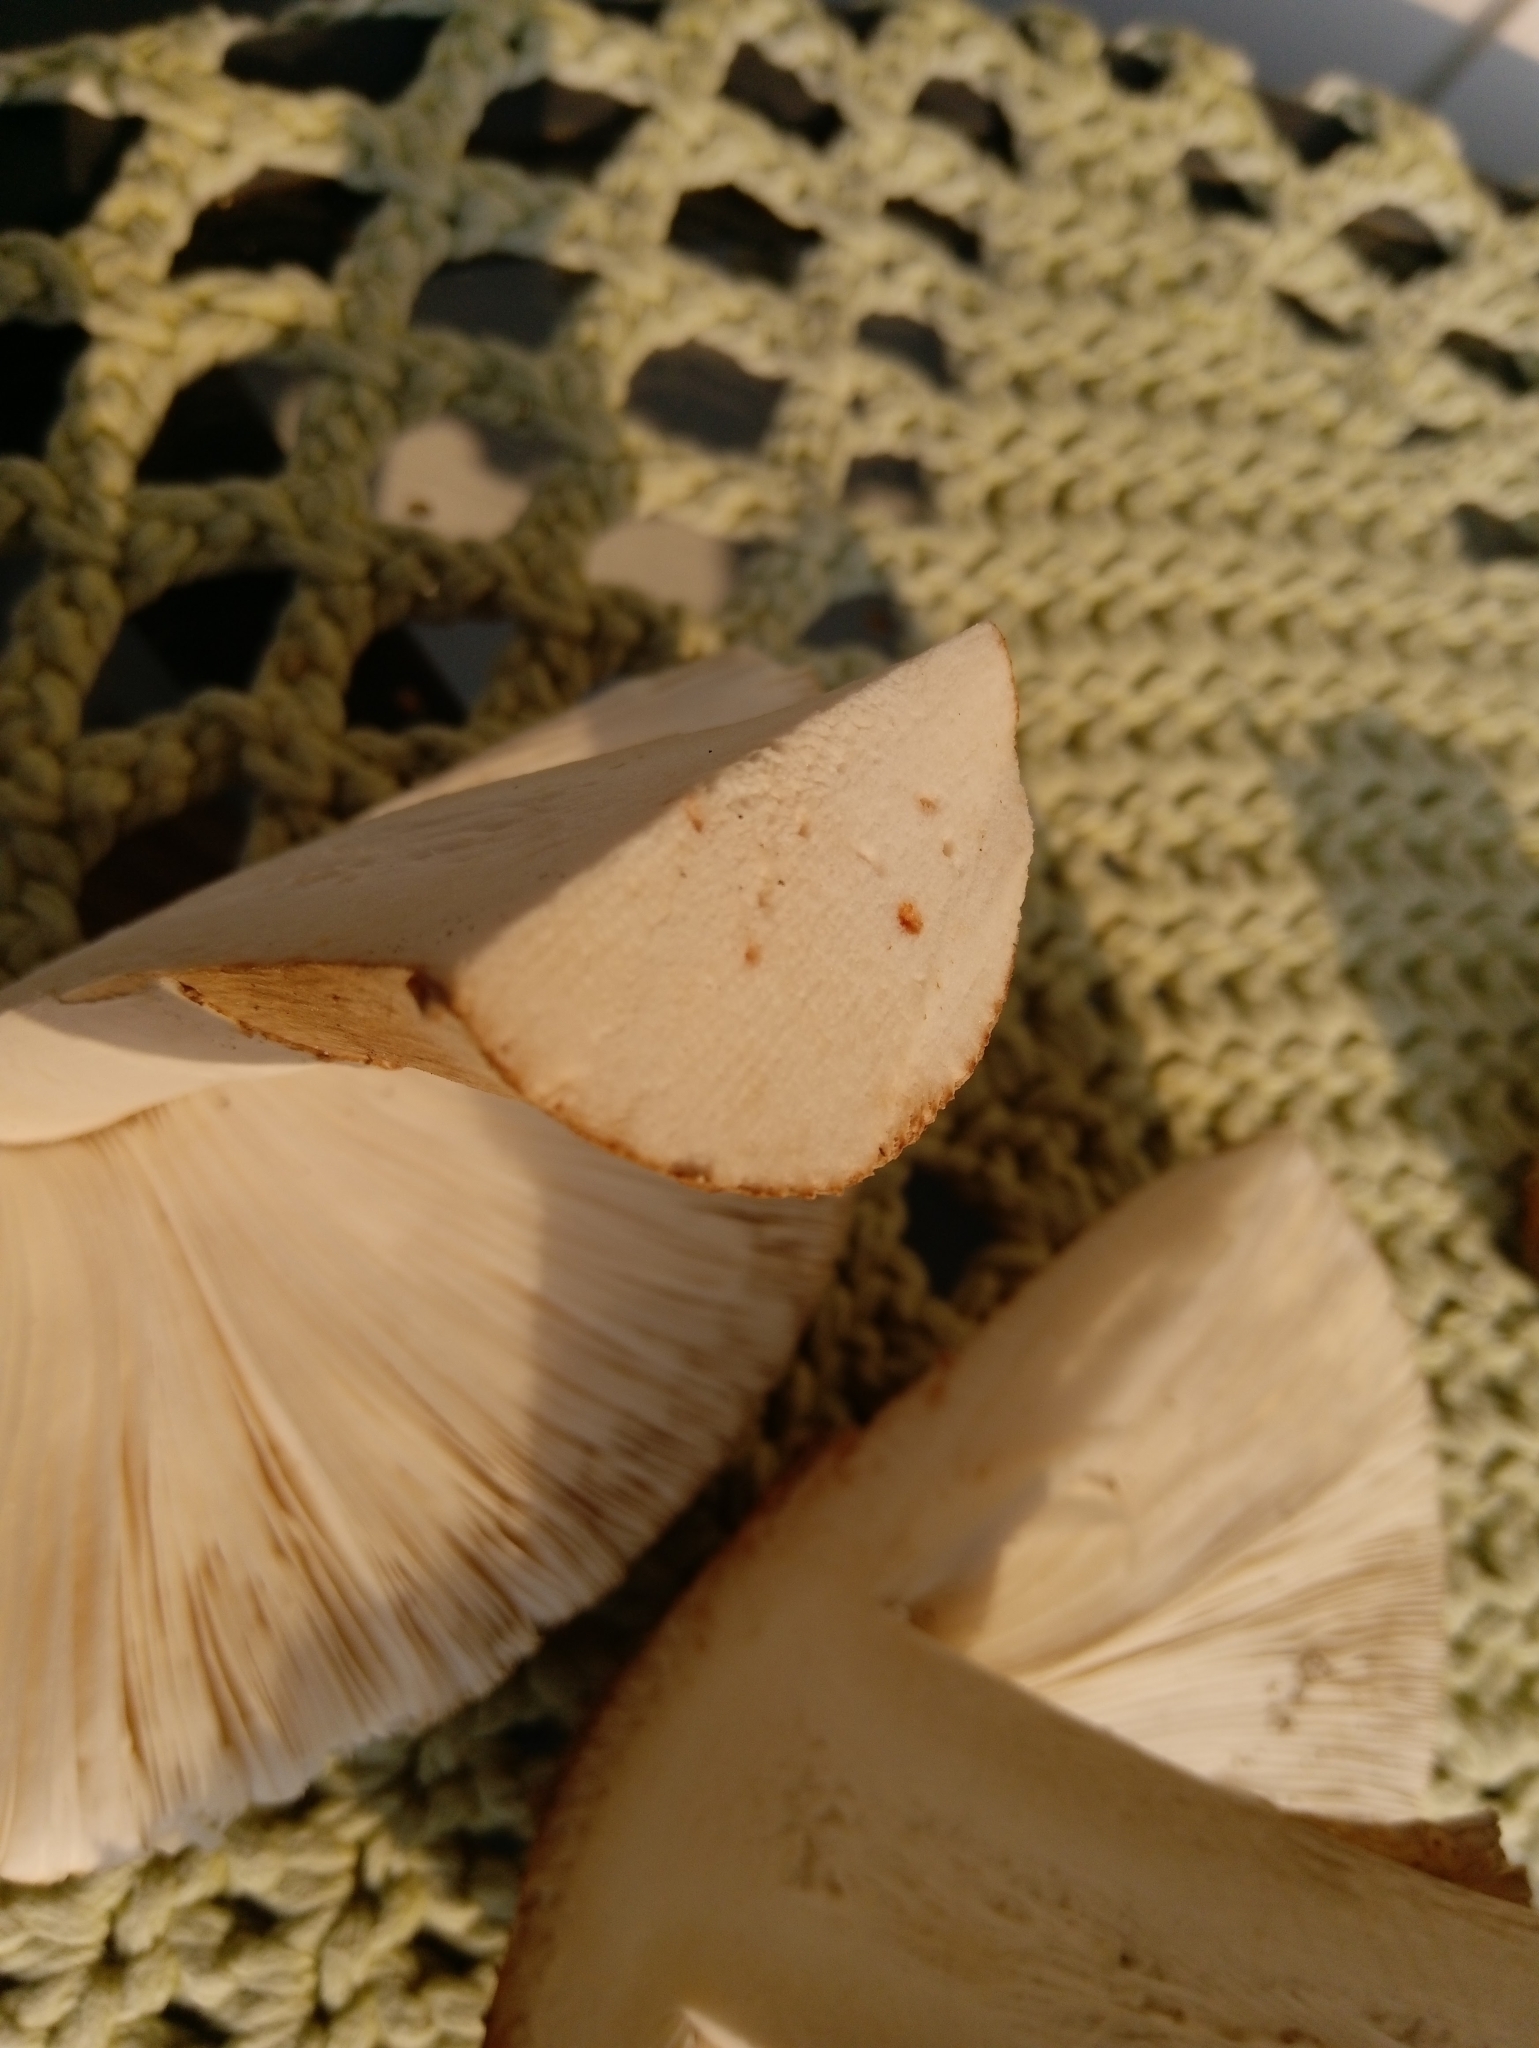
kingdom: Fungi
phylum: Basidiomycota
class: Agaricomycetes
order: Agaricales
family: Amanitaceae
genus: Amanita
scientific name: Amanita rubescens
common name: Blusher
